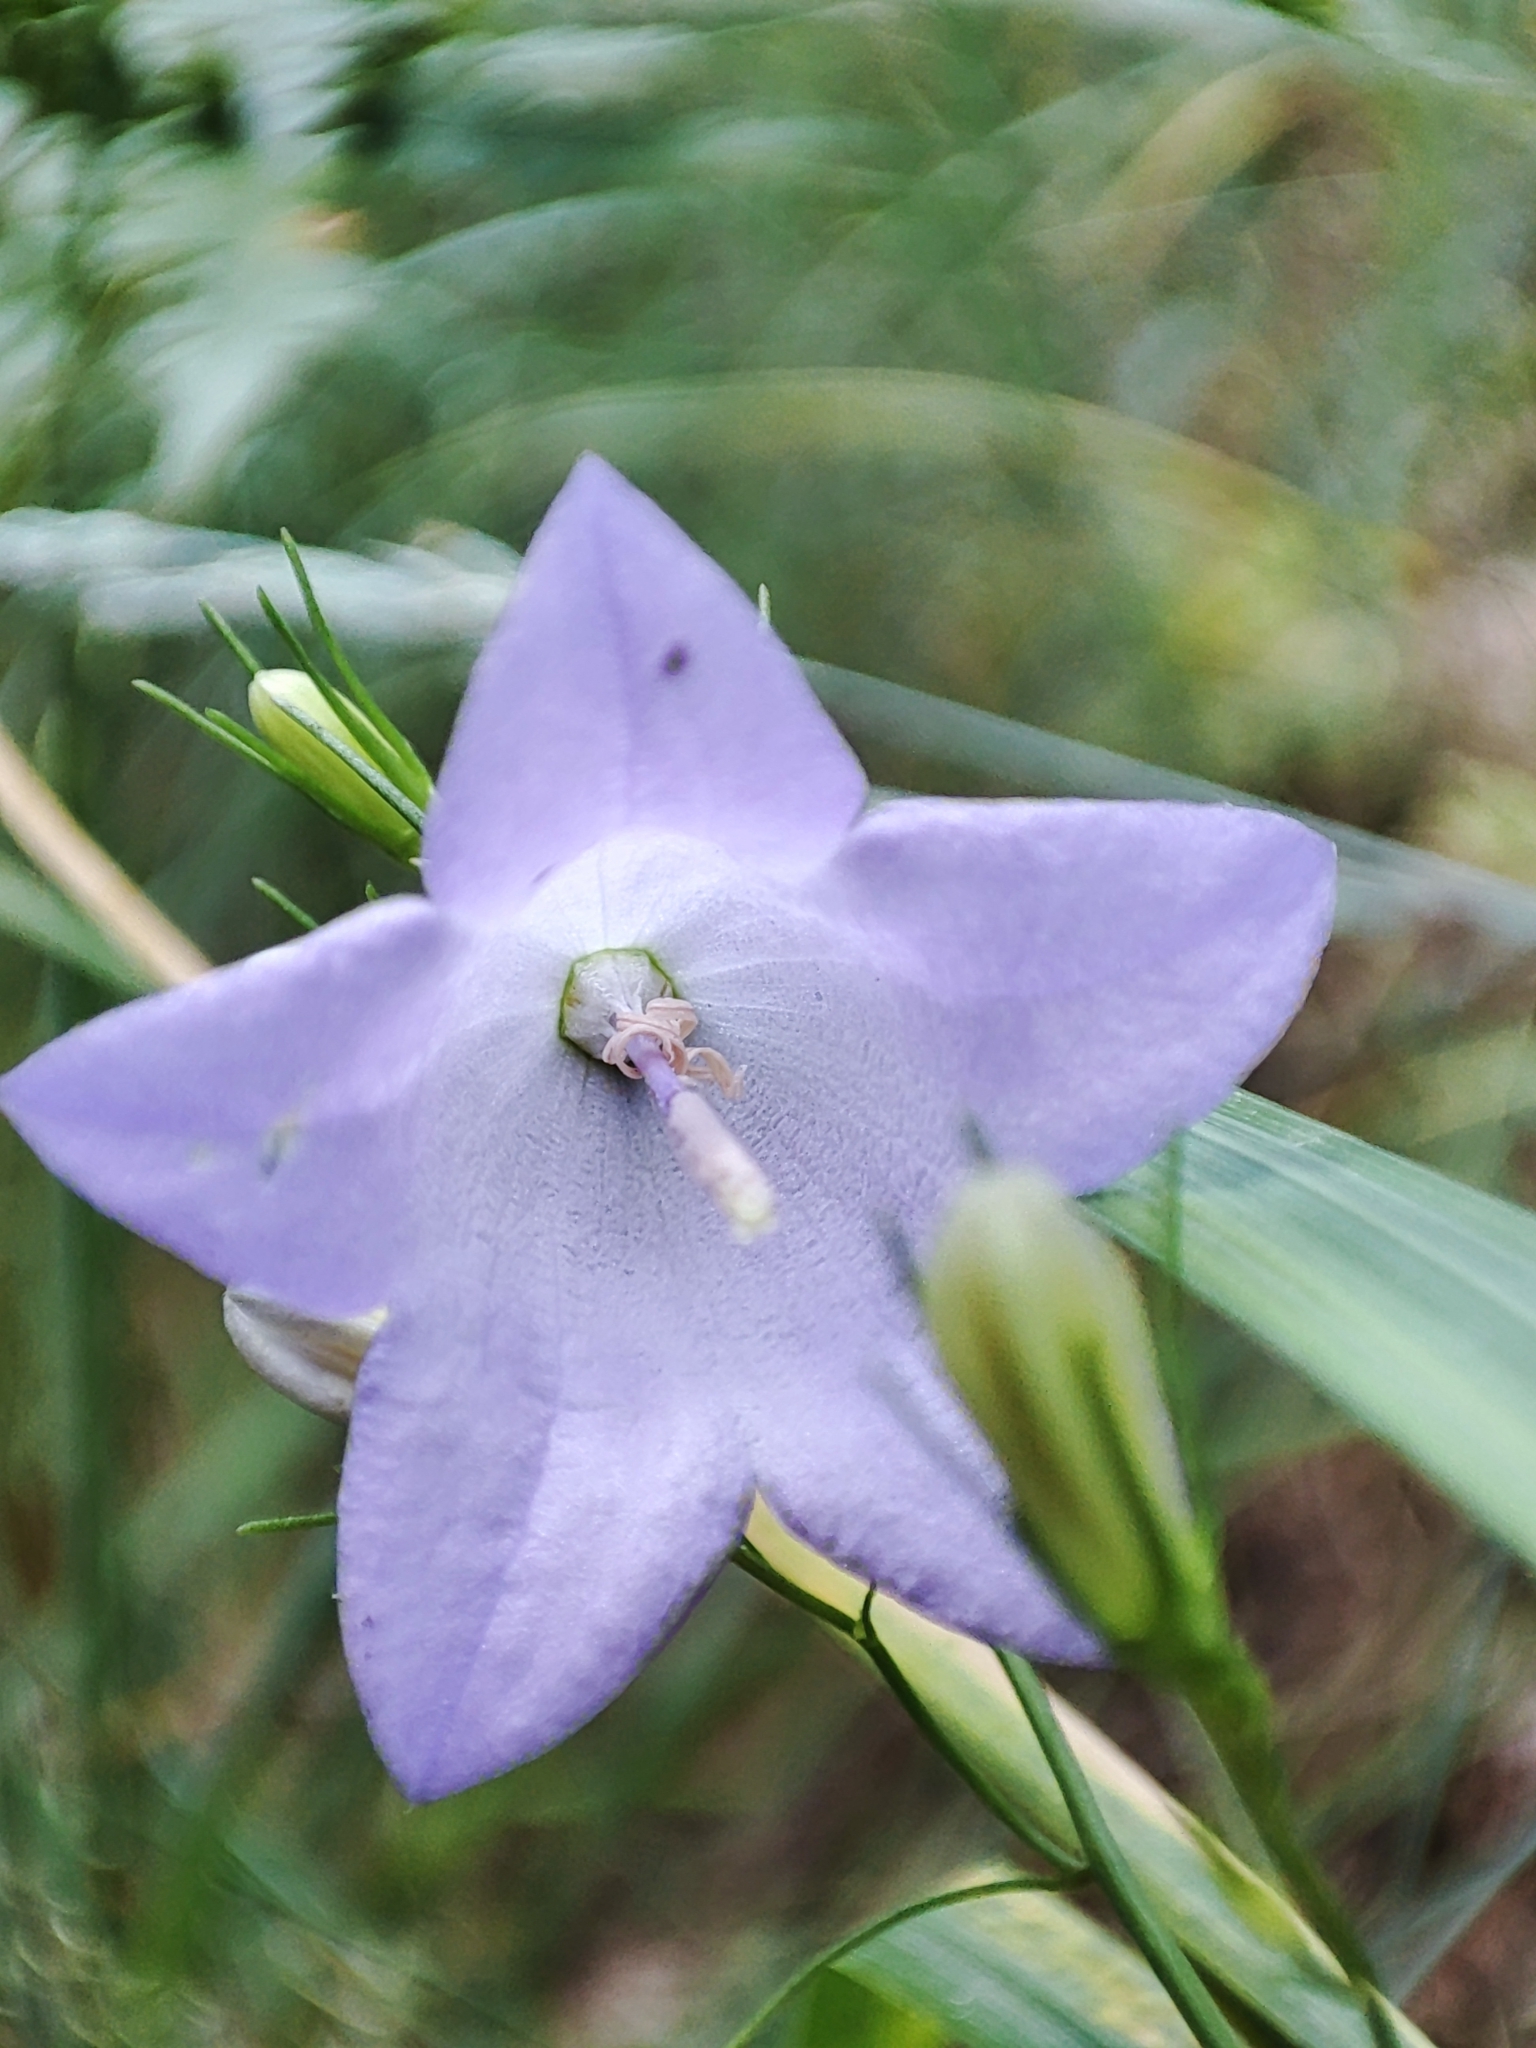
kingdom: Plantae
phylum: Tracheophyta
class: Magnoliopsida
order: Asterales
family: Campanulaceae
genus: Campanula
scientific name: Campanula rotundifolia
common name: Harebell
